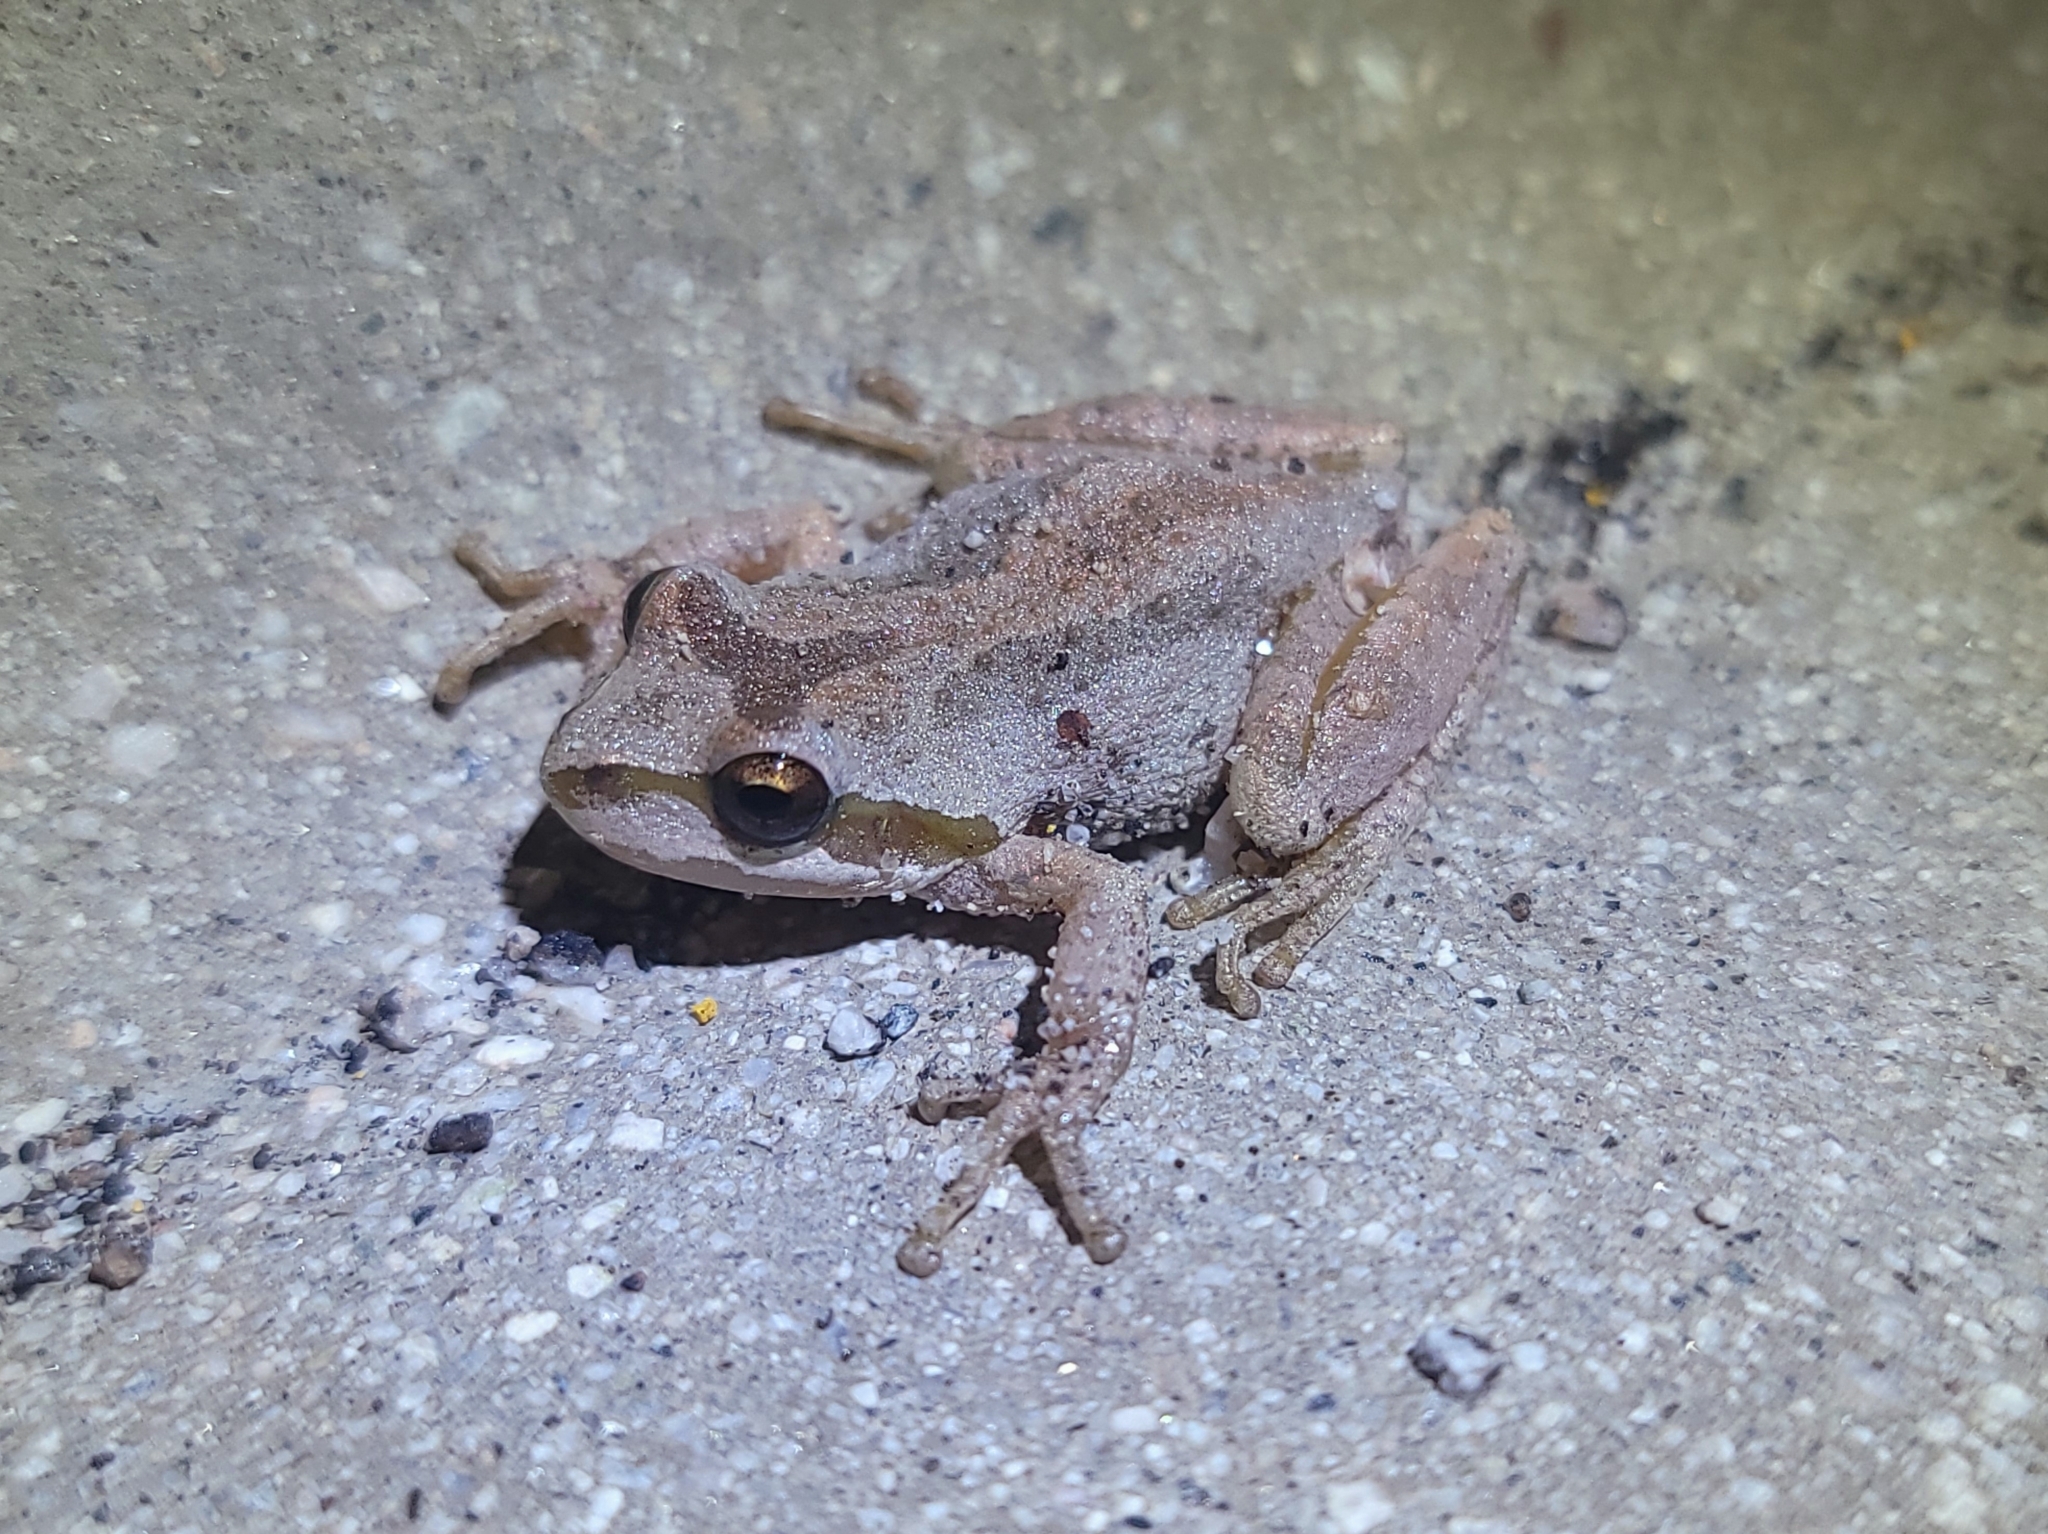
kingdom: Animalia
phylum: Chordata
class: Amphibia
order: Anura
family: Hylidae
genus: Pseudacris
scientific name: Pseudacris regilla
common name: Pacific chorus frog
